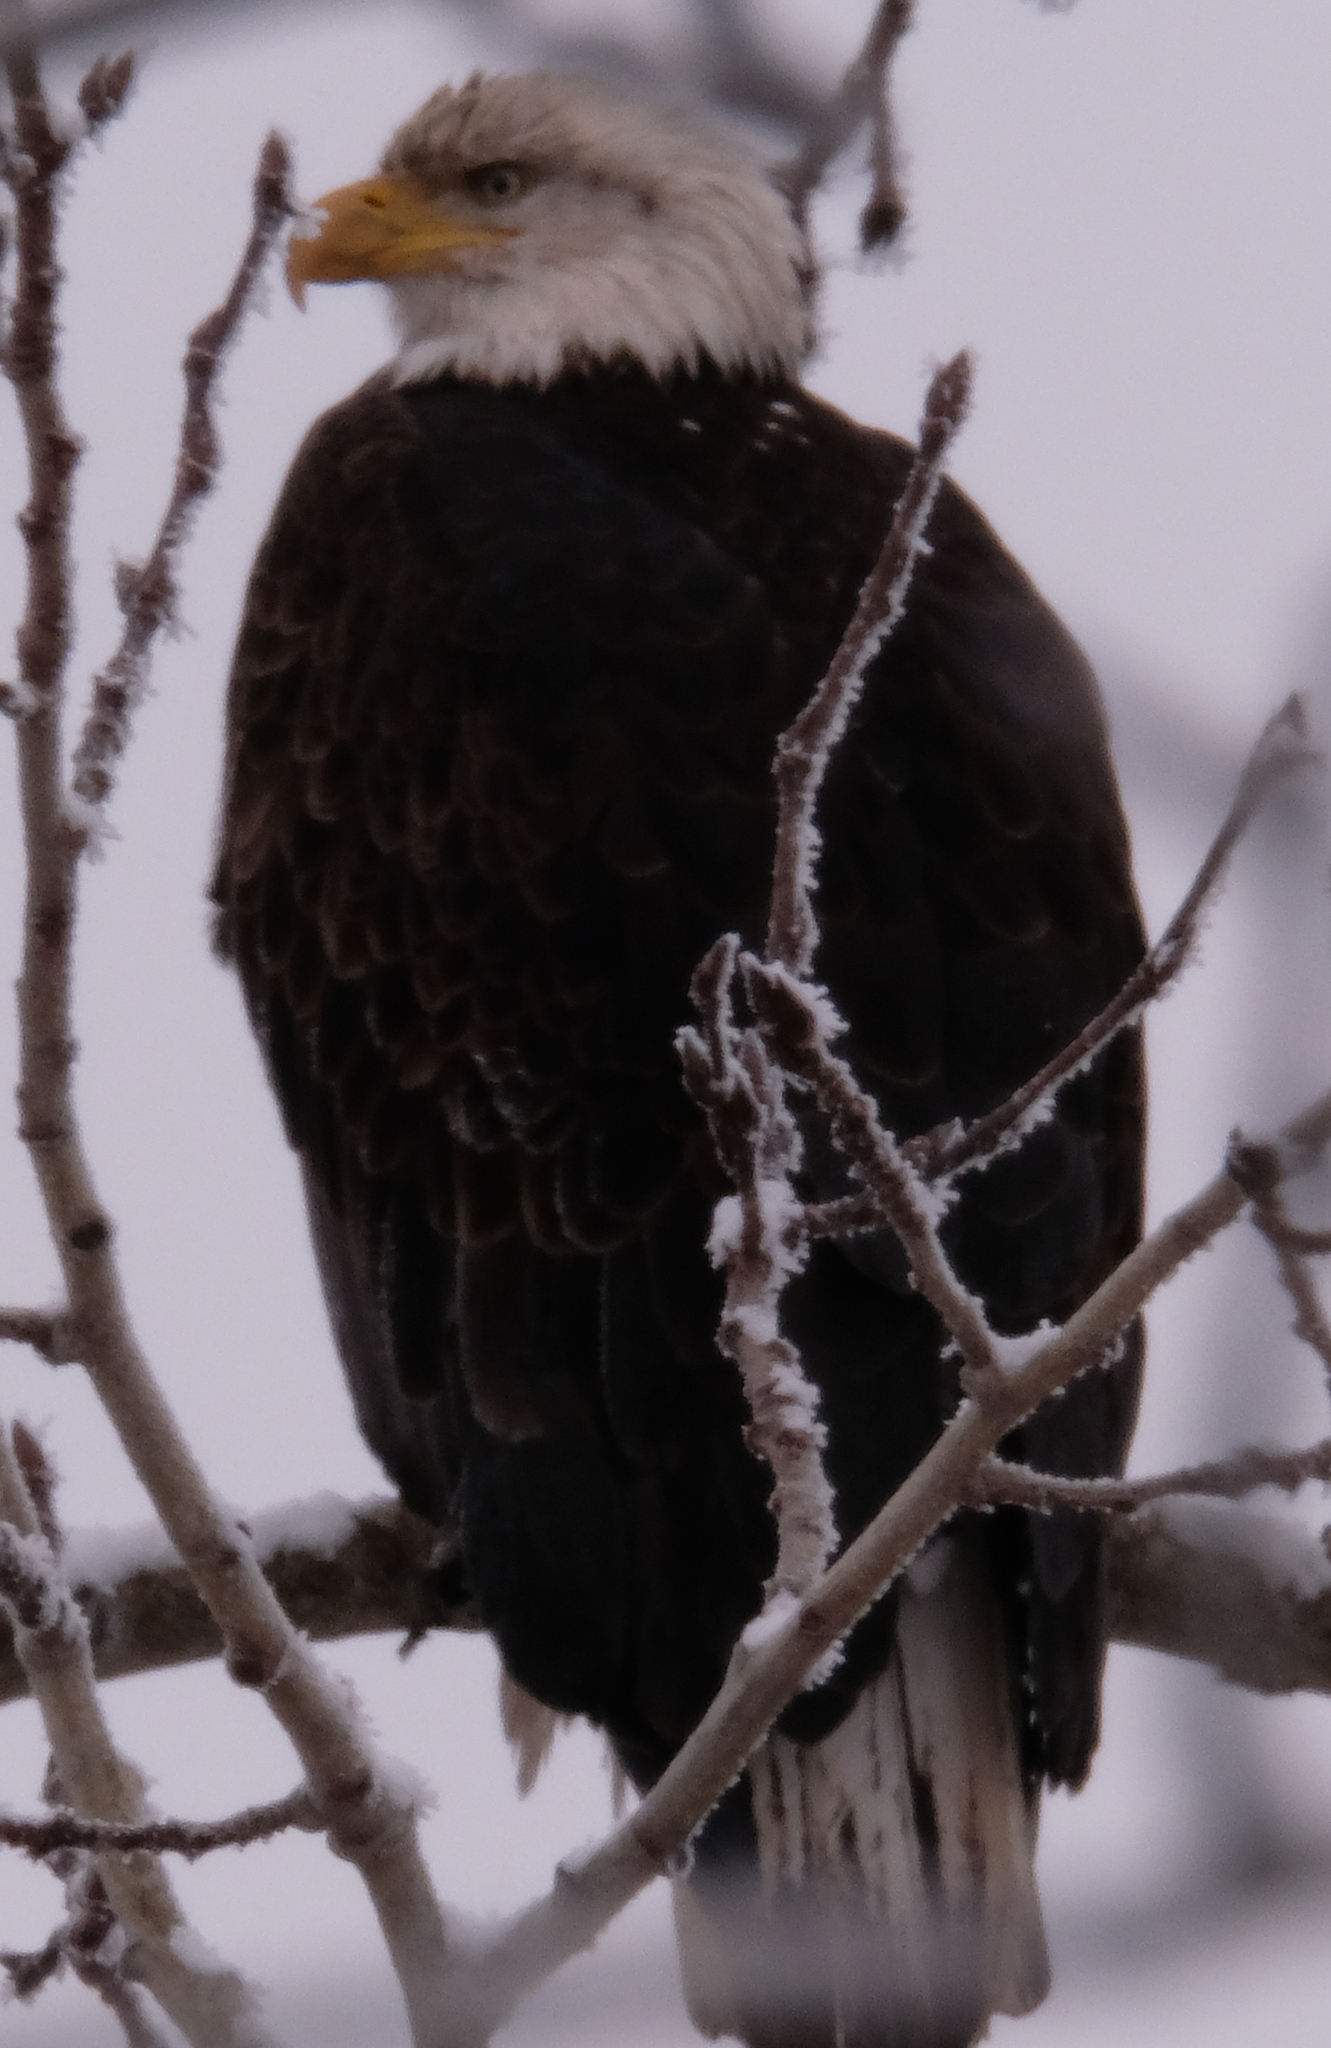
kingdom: Animalia
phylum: Chordata
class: Aves
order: Accipitriformes
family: Accipitridae
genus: Haliaeetus
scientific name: Haliaeetus leucocephalus
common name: Bald eagle
